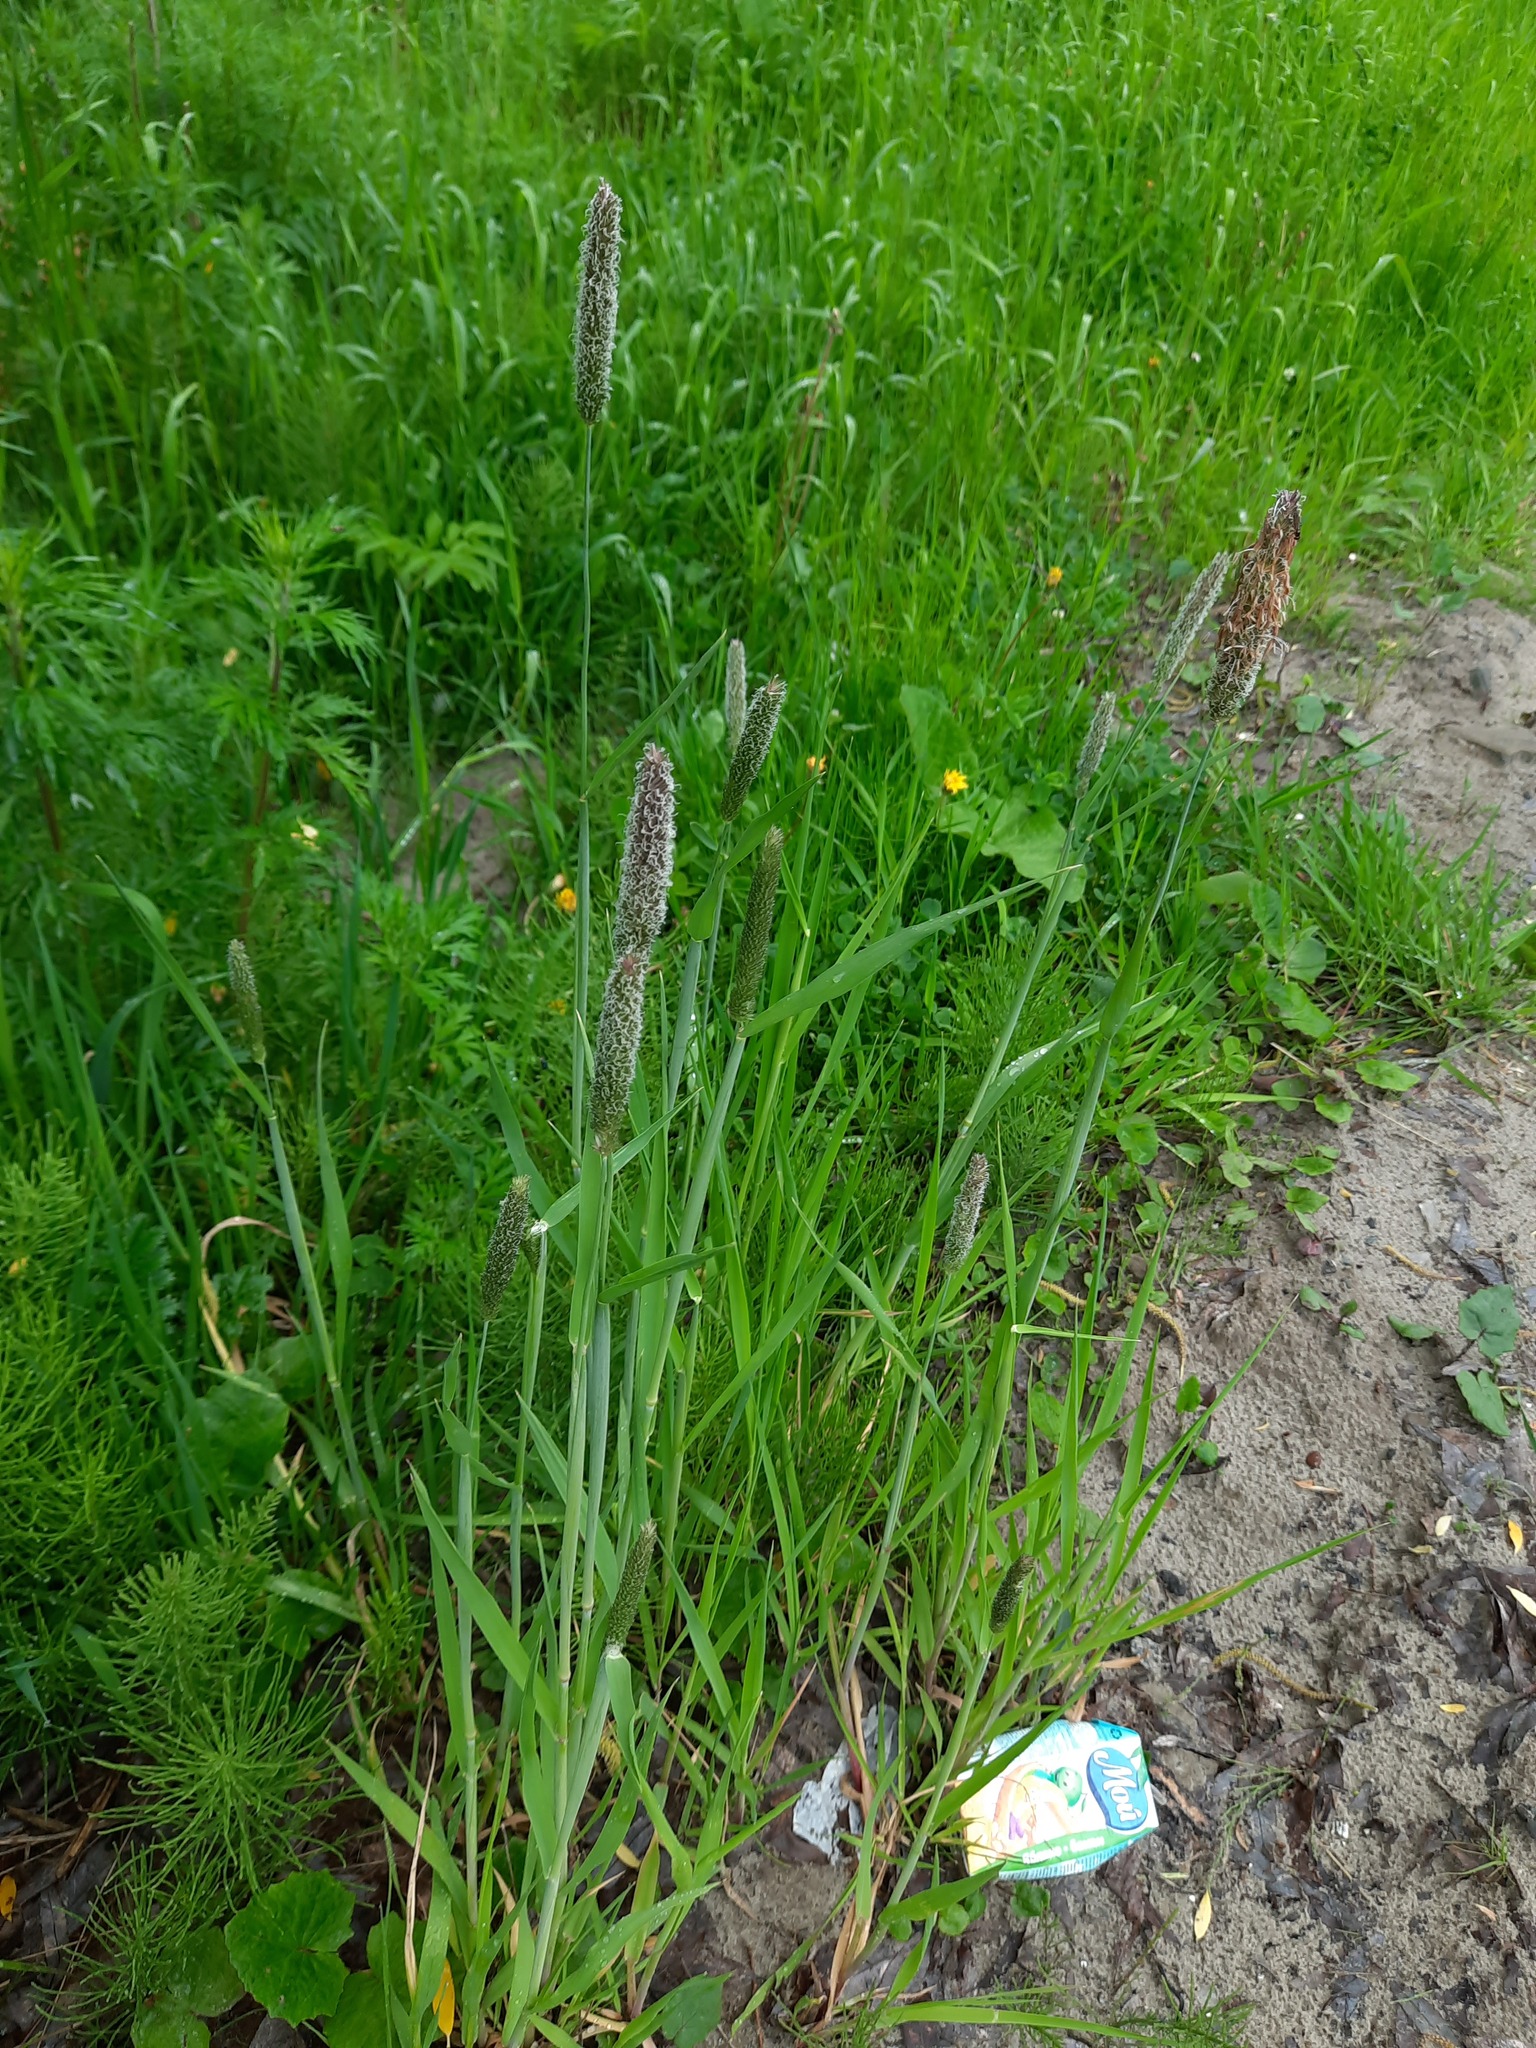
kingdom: Plantae
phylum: Tracheophyta
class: Liliopsida
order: Poales
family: Poaceae
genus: Alopecurus
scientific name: Alopecurus pratensis
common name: Meadow foxtail
